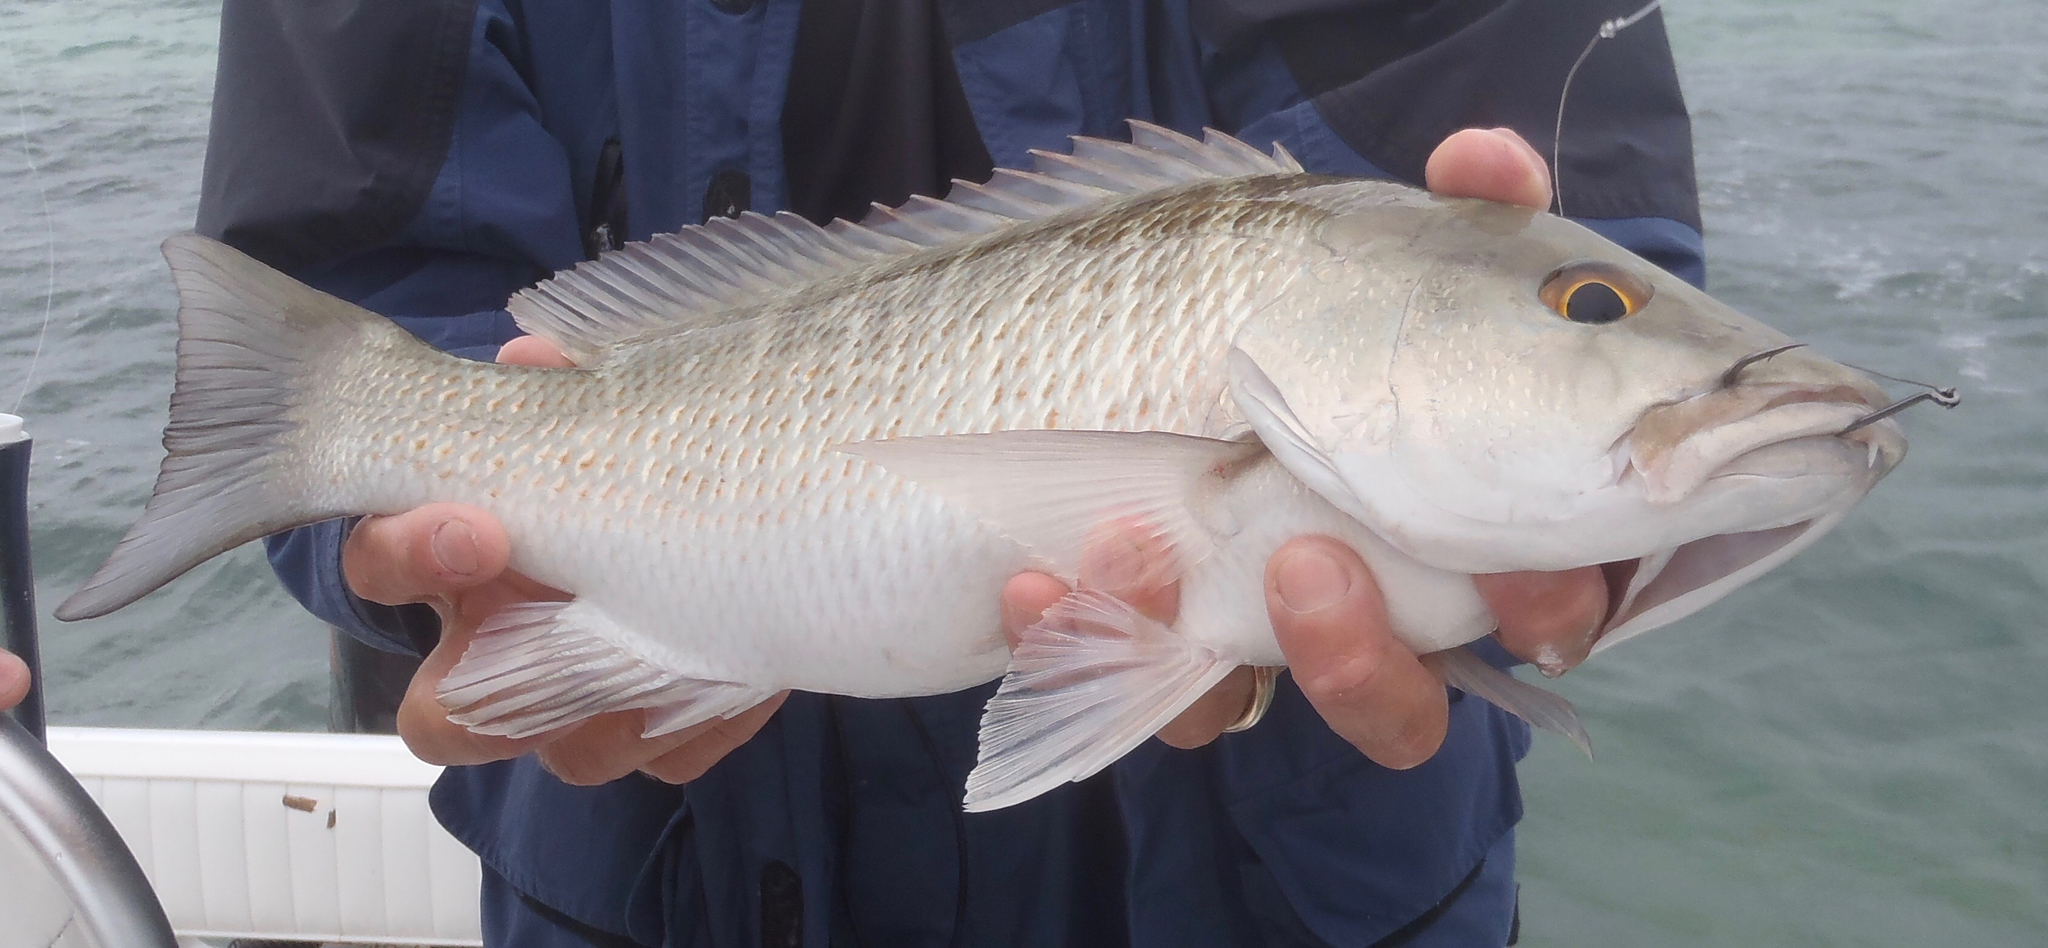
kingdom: Animalia
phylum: Chordata
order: Perciformes
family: Lutjanidae
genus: Lutjanus
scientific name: Lutjanus griseus
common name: Gray snapper
